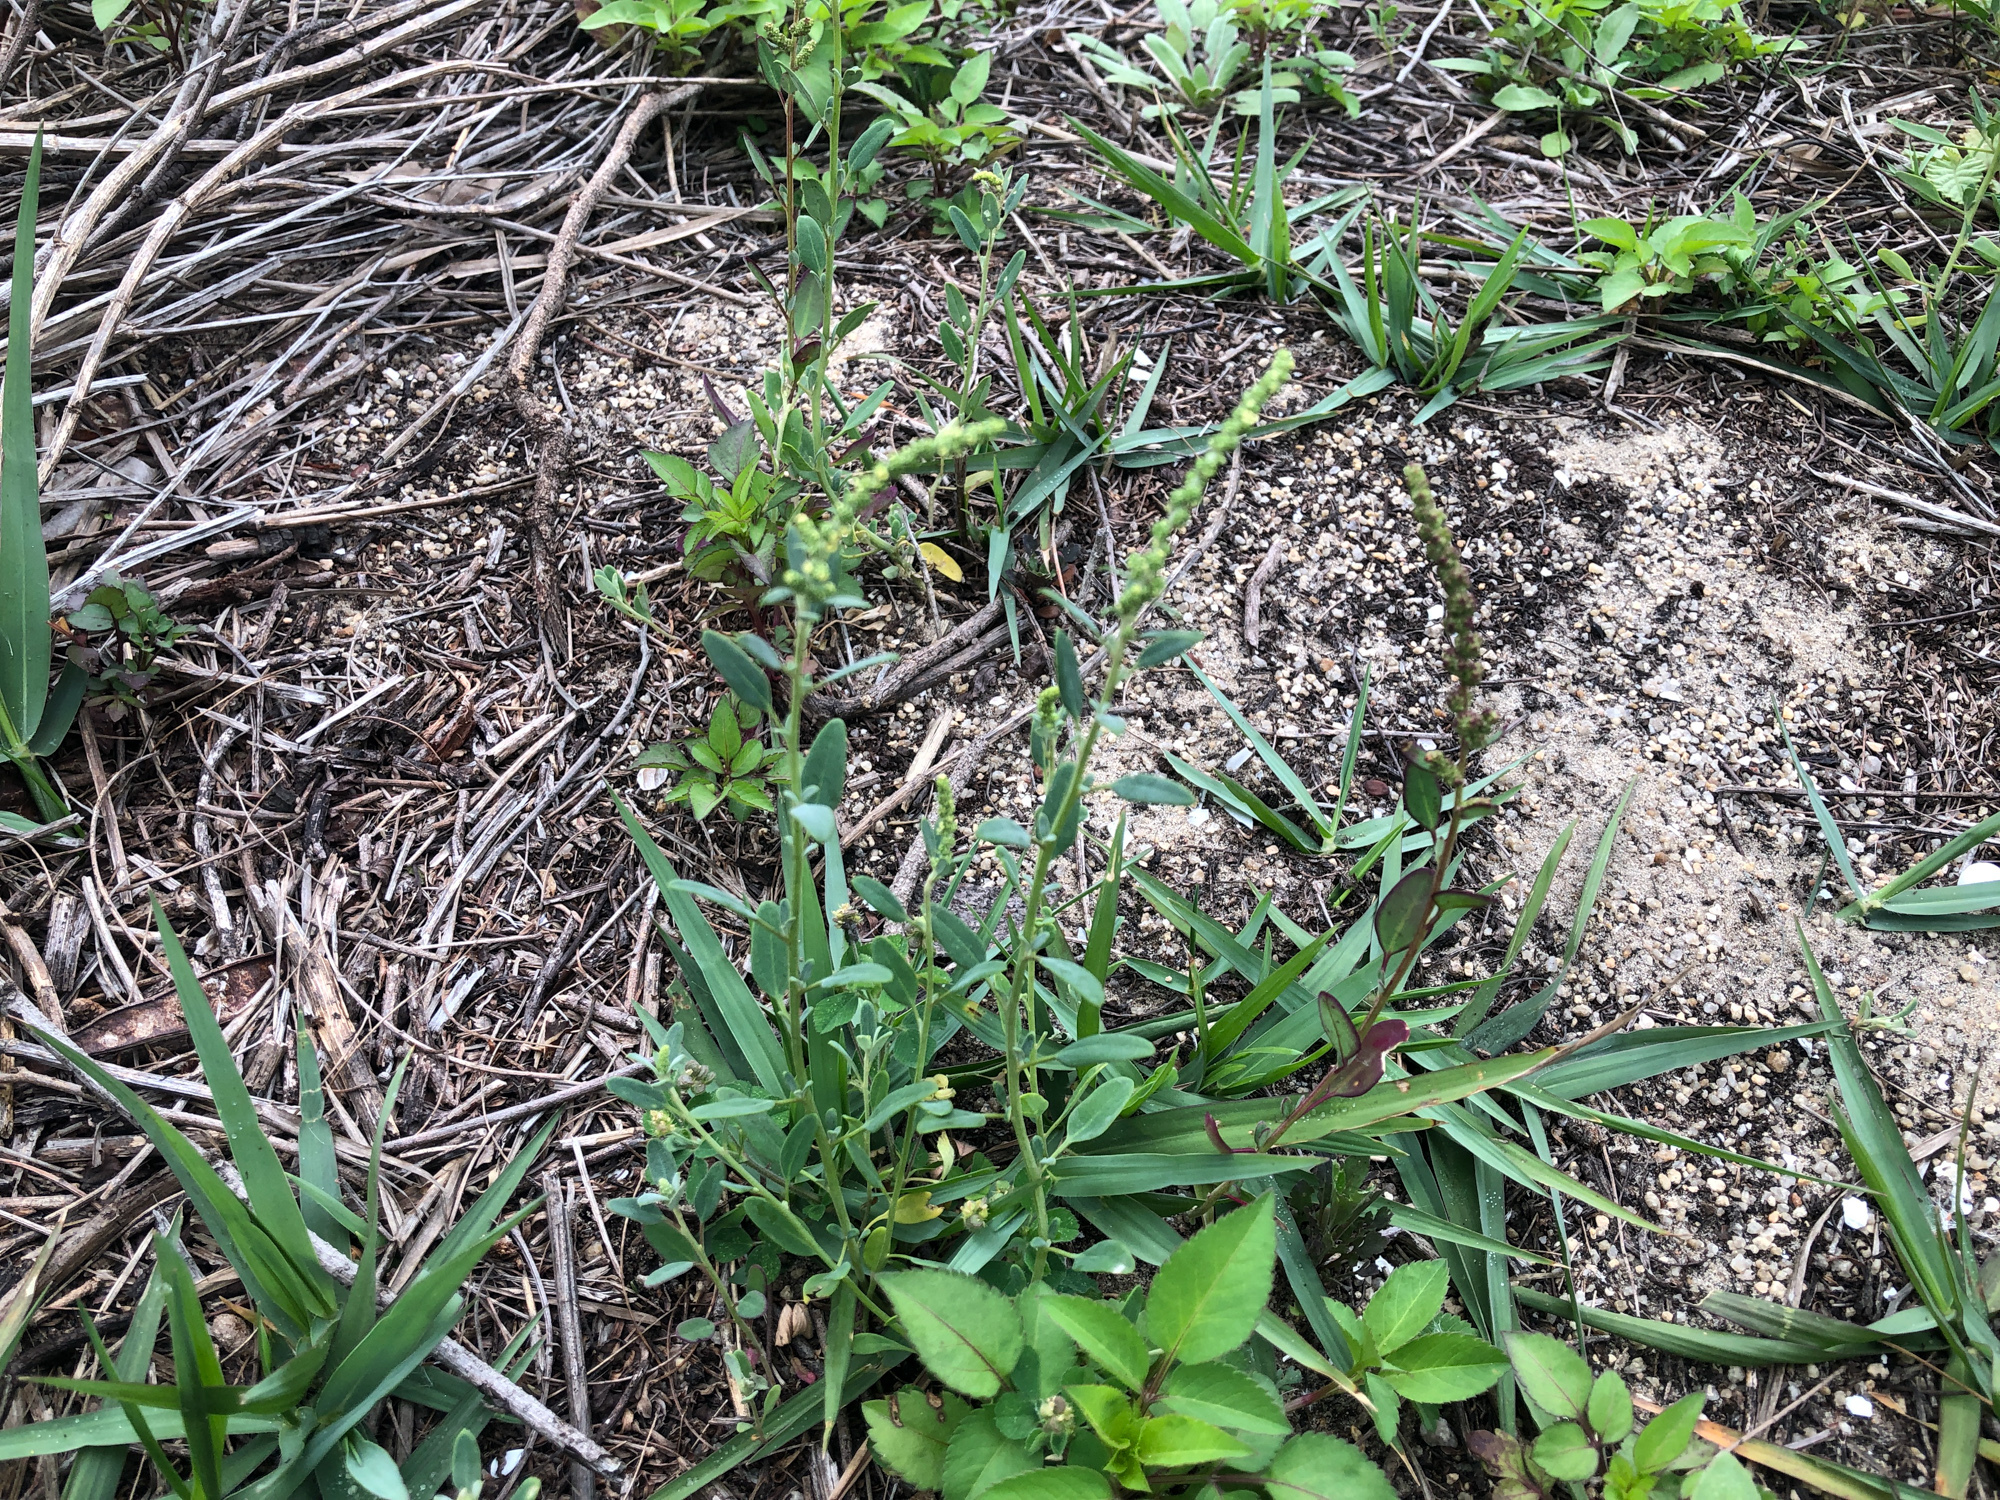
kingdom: Plantae
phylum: Tracheophyta
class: Magnoliopsida
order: Caryophyllales
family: Amaranthaceae
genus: Chenopodium
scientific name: Chenopodium acuminatum
